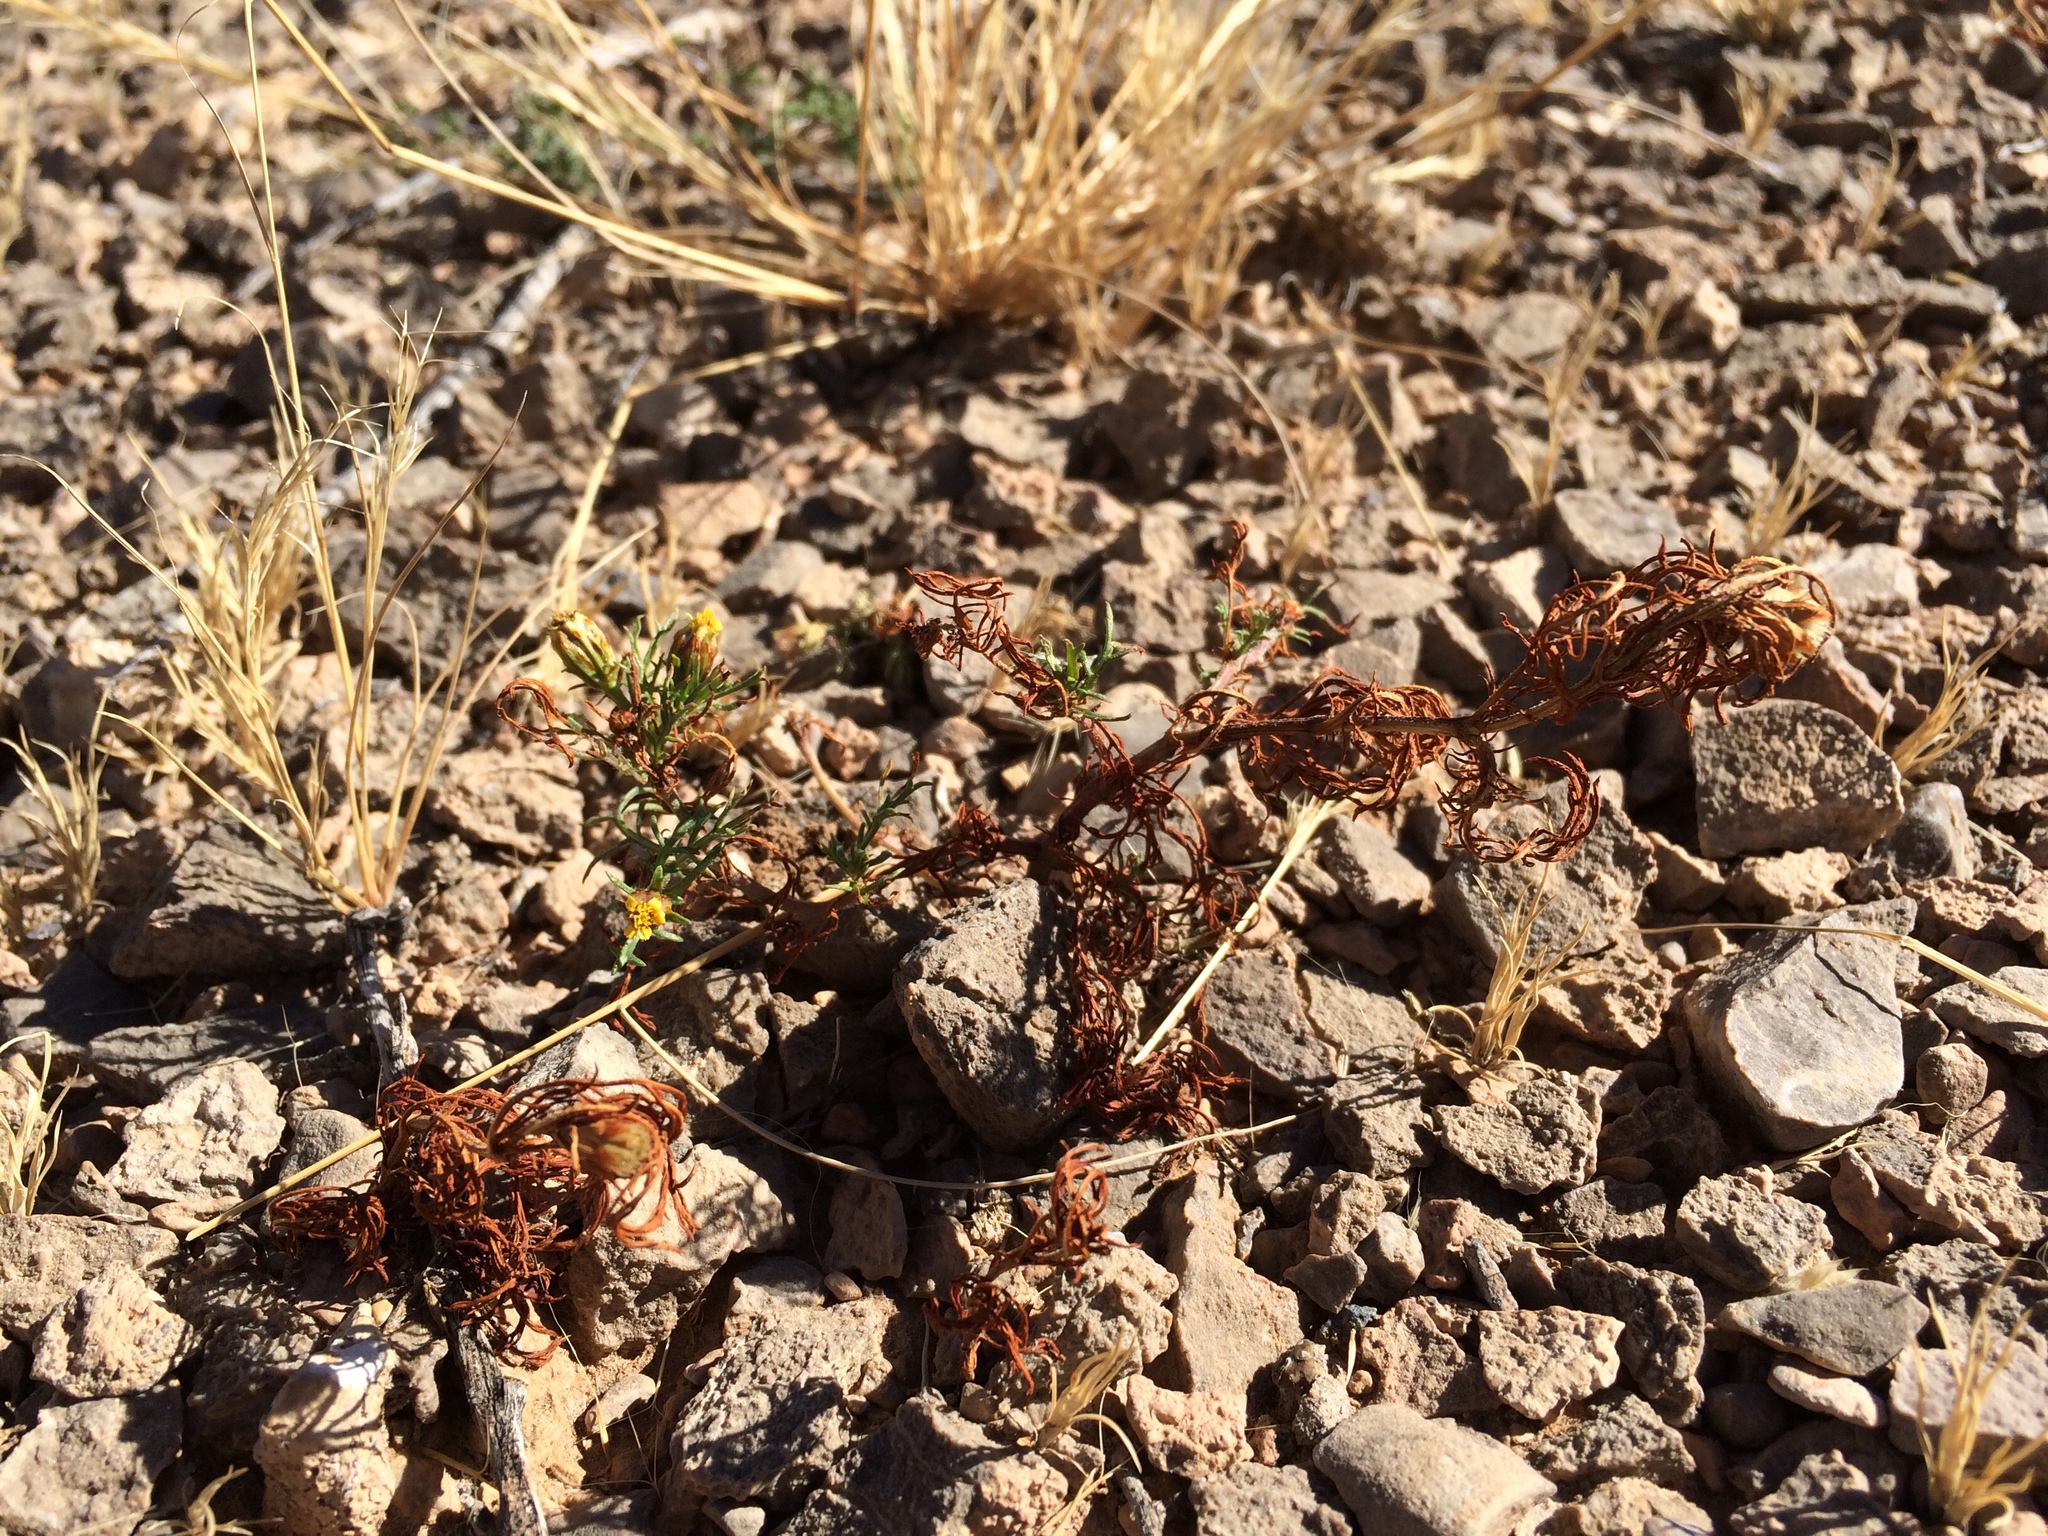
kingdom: Plantae
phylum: Tracheophyta
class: Magnoliopsida
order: Asterales
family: Asteraceae
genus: Dyssodia
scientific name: Dyssodia papposa
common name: Dogweed
